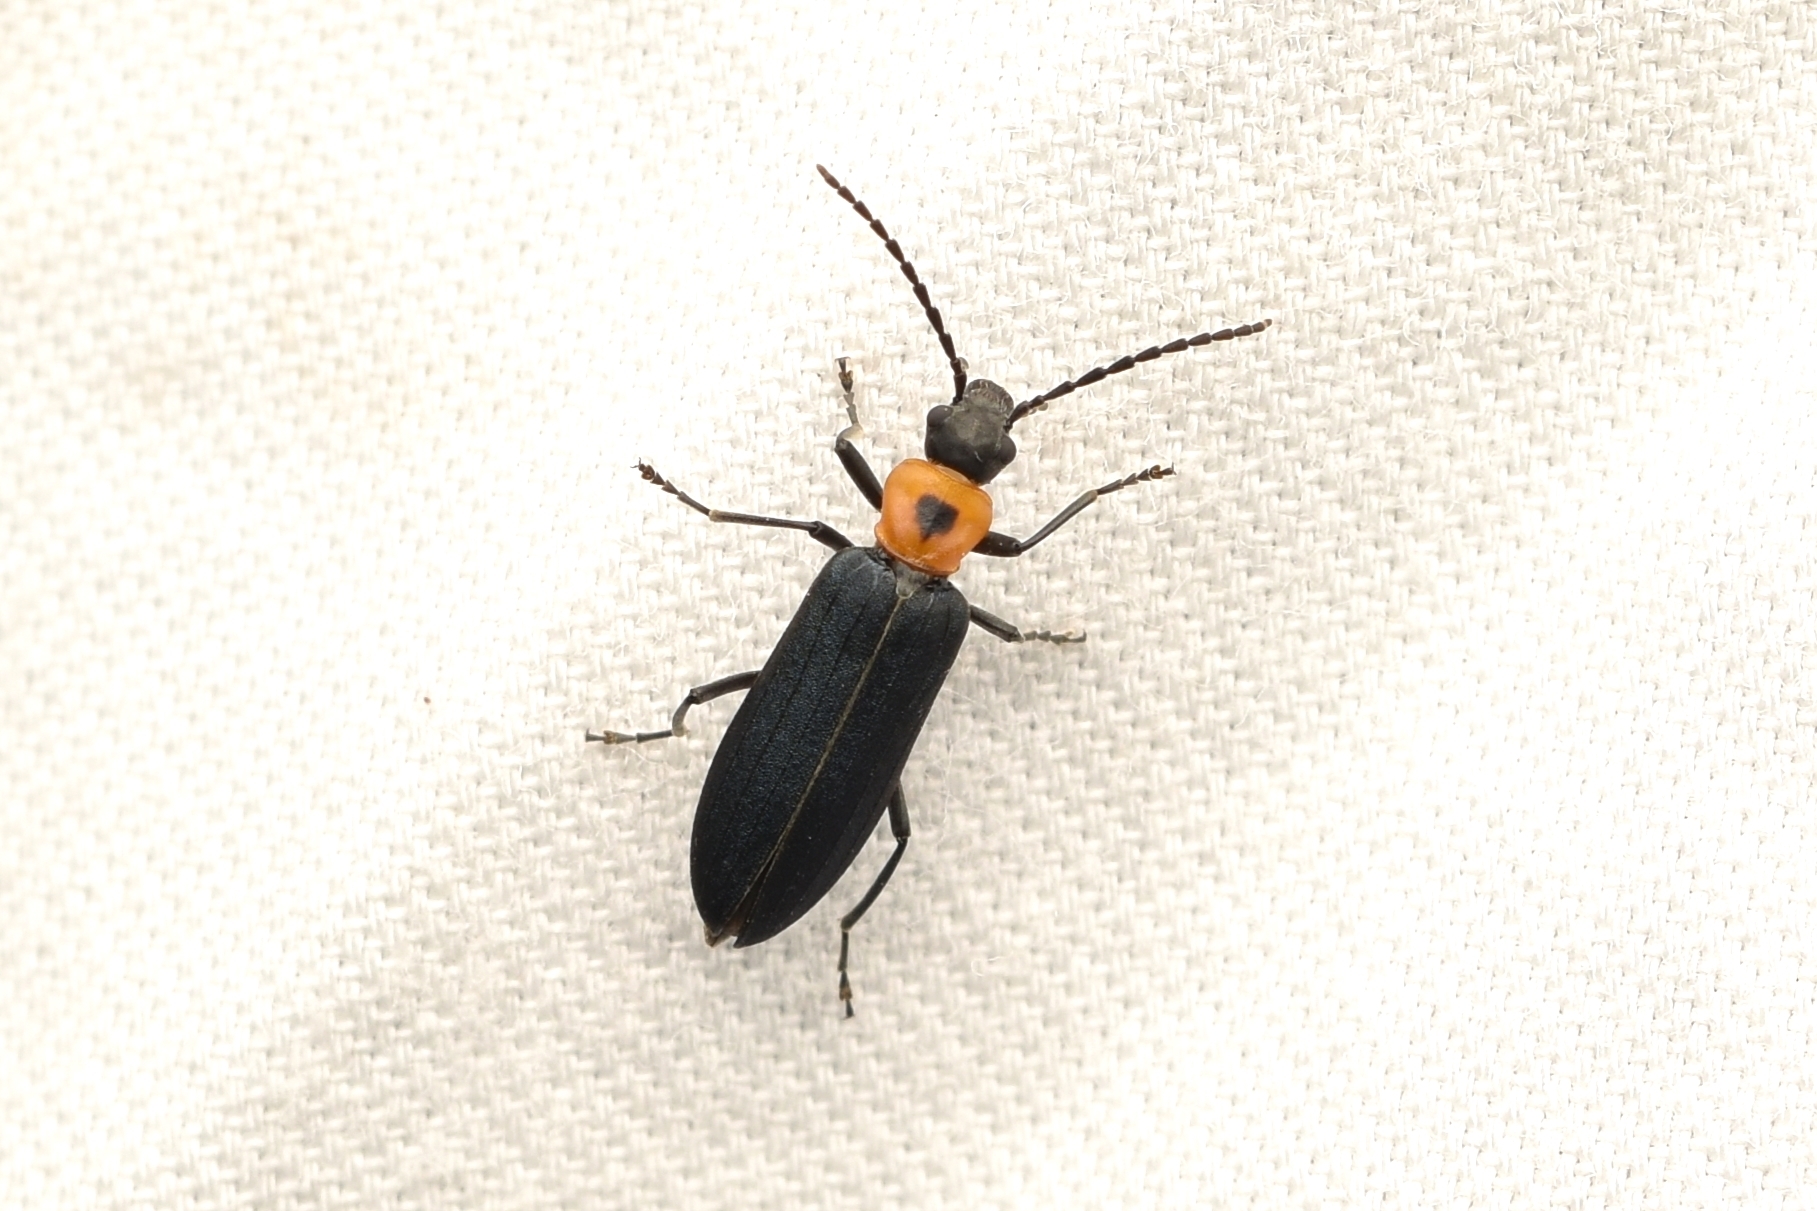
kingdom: Animalia
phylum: Arthropoda
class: Insecta
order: Coleoptera
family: Oedemeridae
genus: Ischnomera
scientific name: Ischnomera
